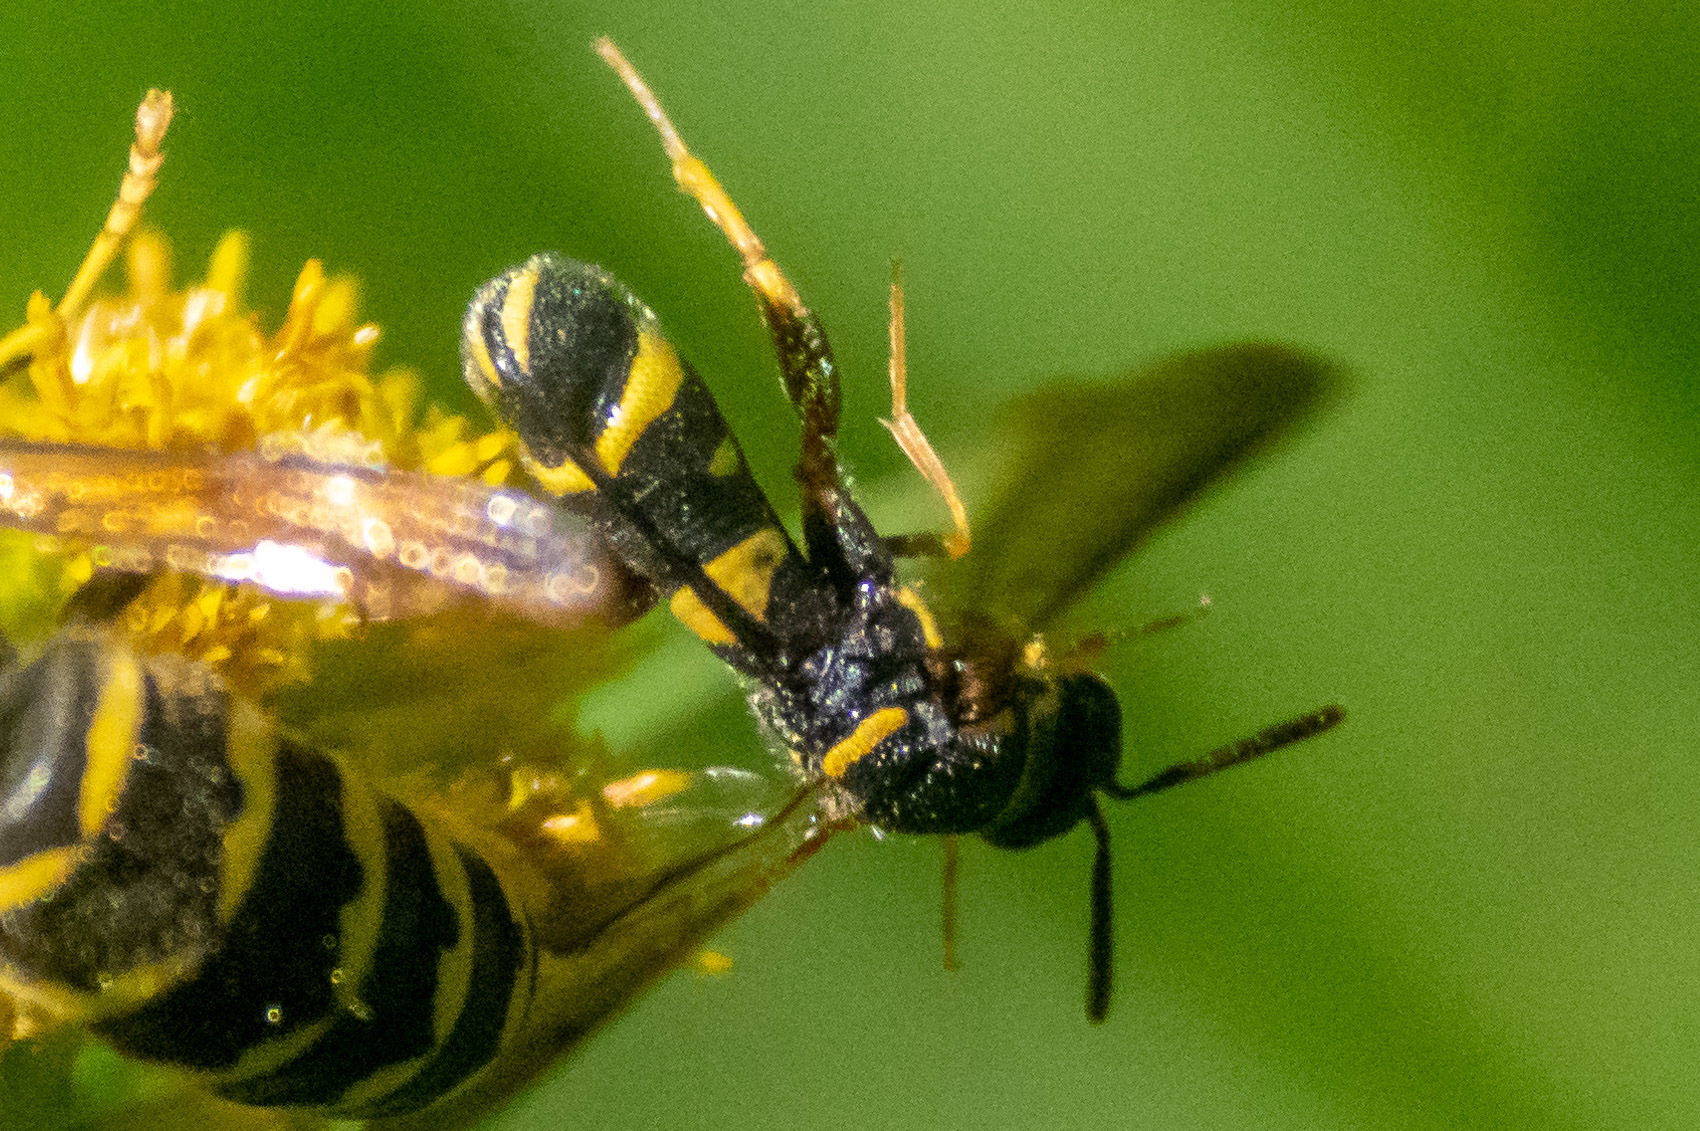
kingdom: Animalia
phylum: Arthropoda
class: Insecta
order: Hymenoptera
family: Leucospidae
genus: Leucospis
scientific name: Leucospis affinis
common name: Wasp
